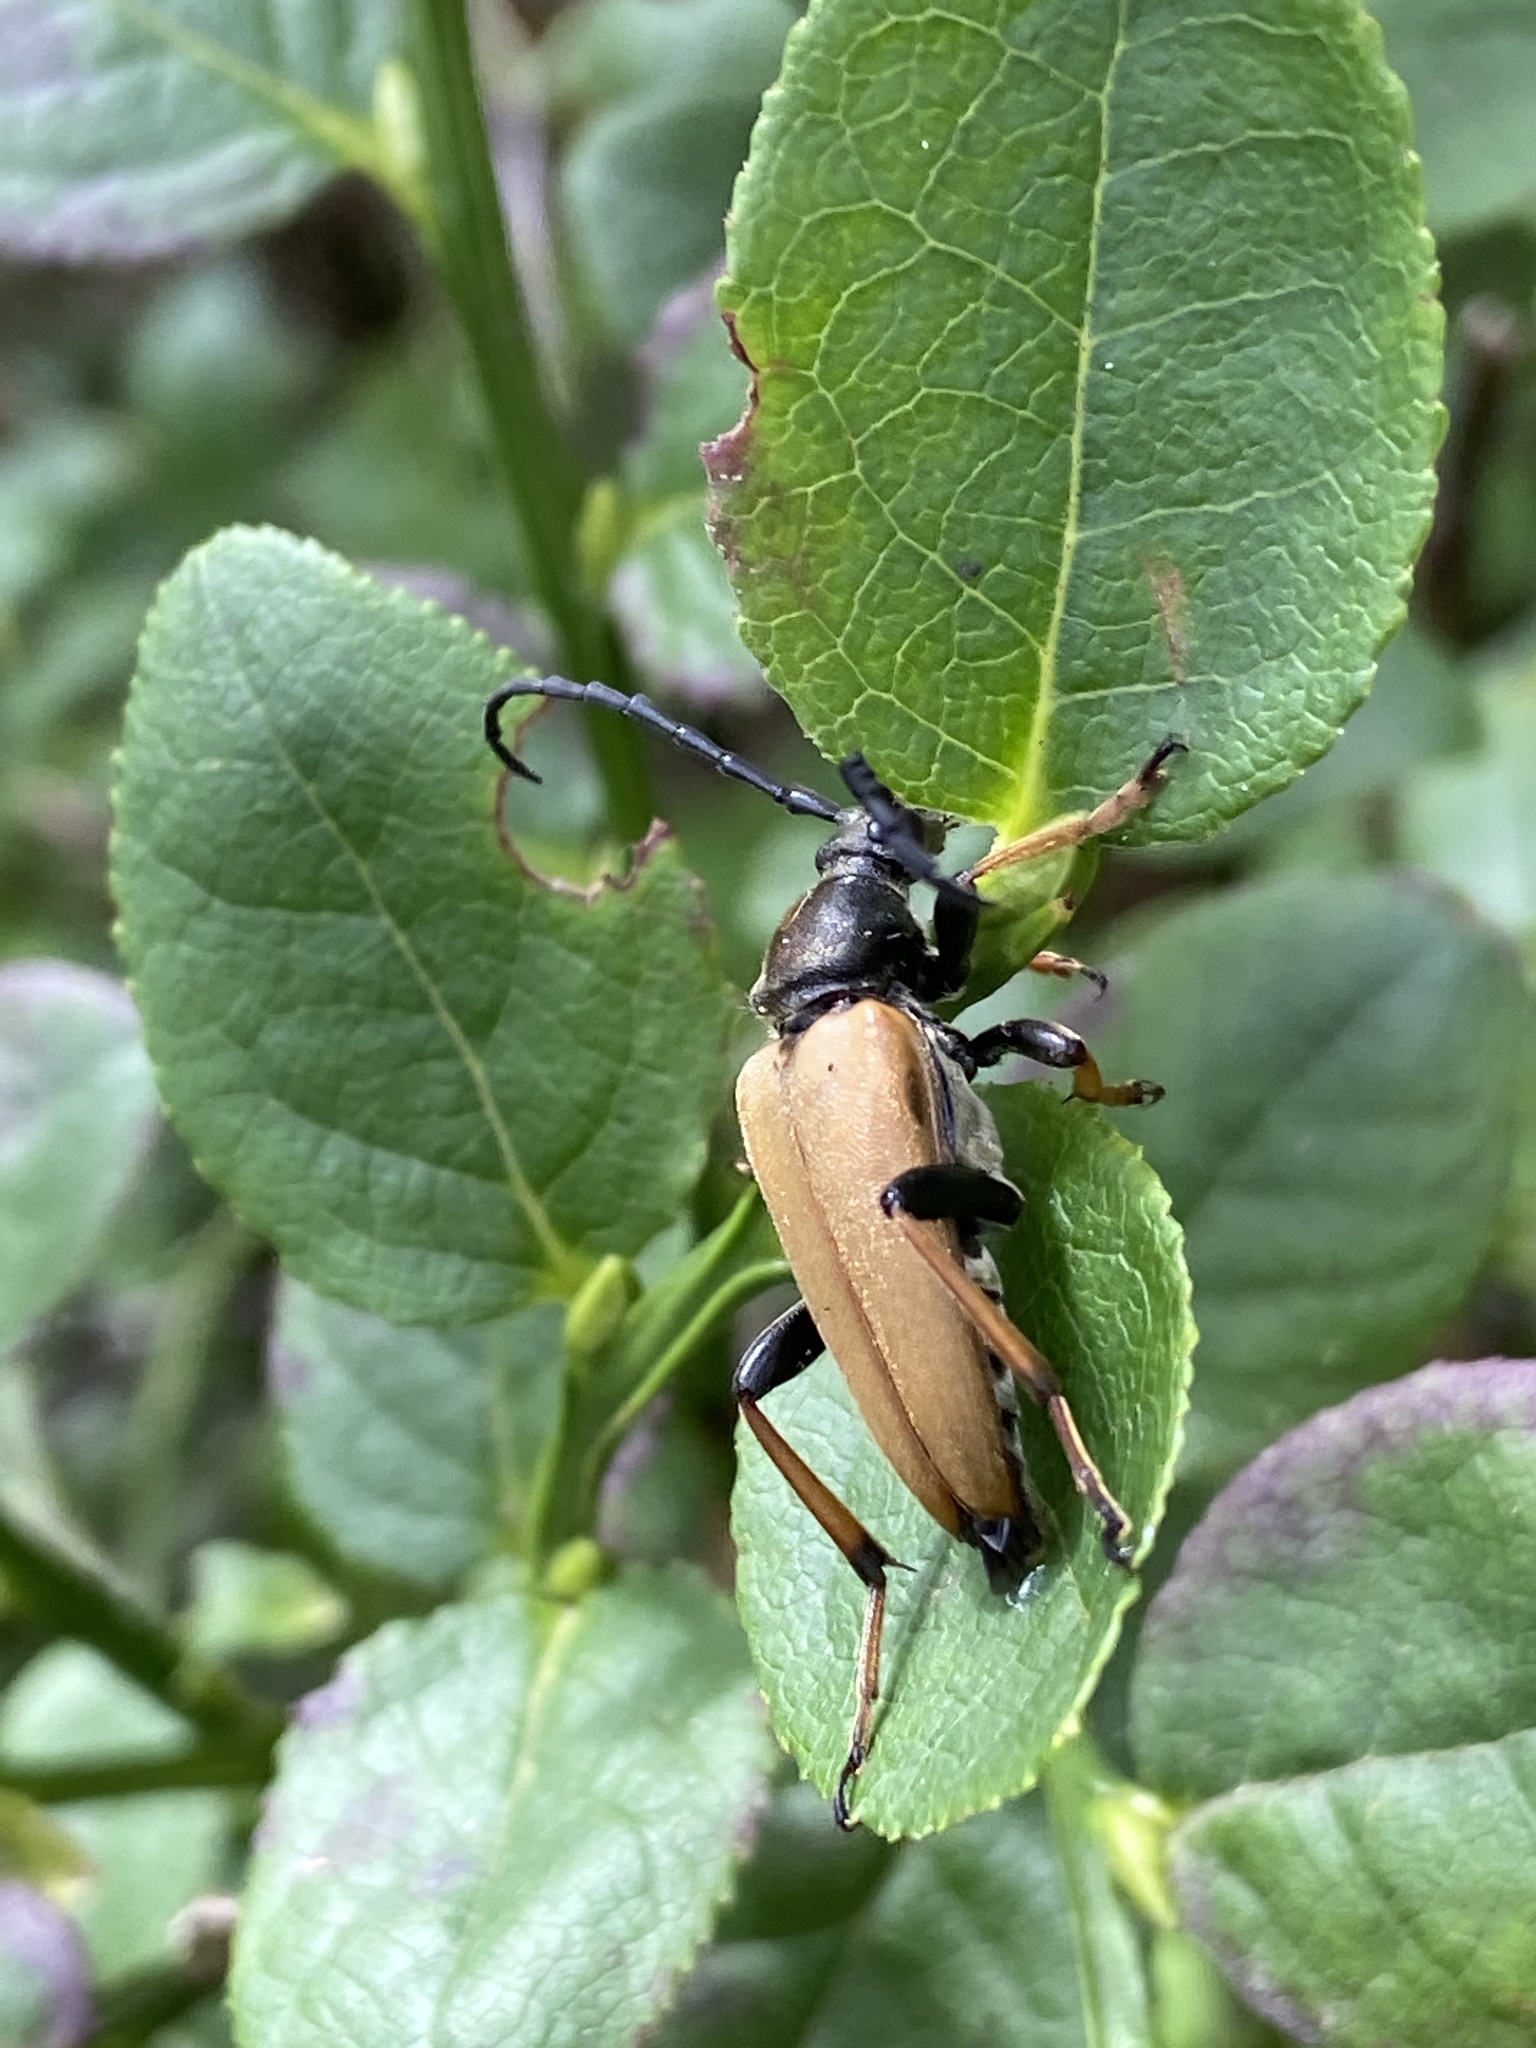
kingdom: Animalia
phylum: Arthropoda
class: Insecta
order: Coleoptera
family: Cerambycidae
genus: Stictoleptura
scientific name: Stictoleptura rubra
